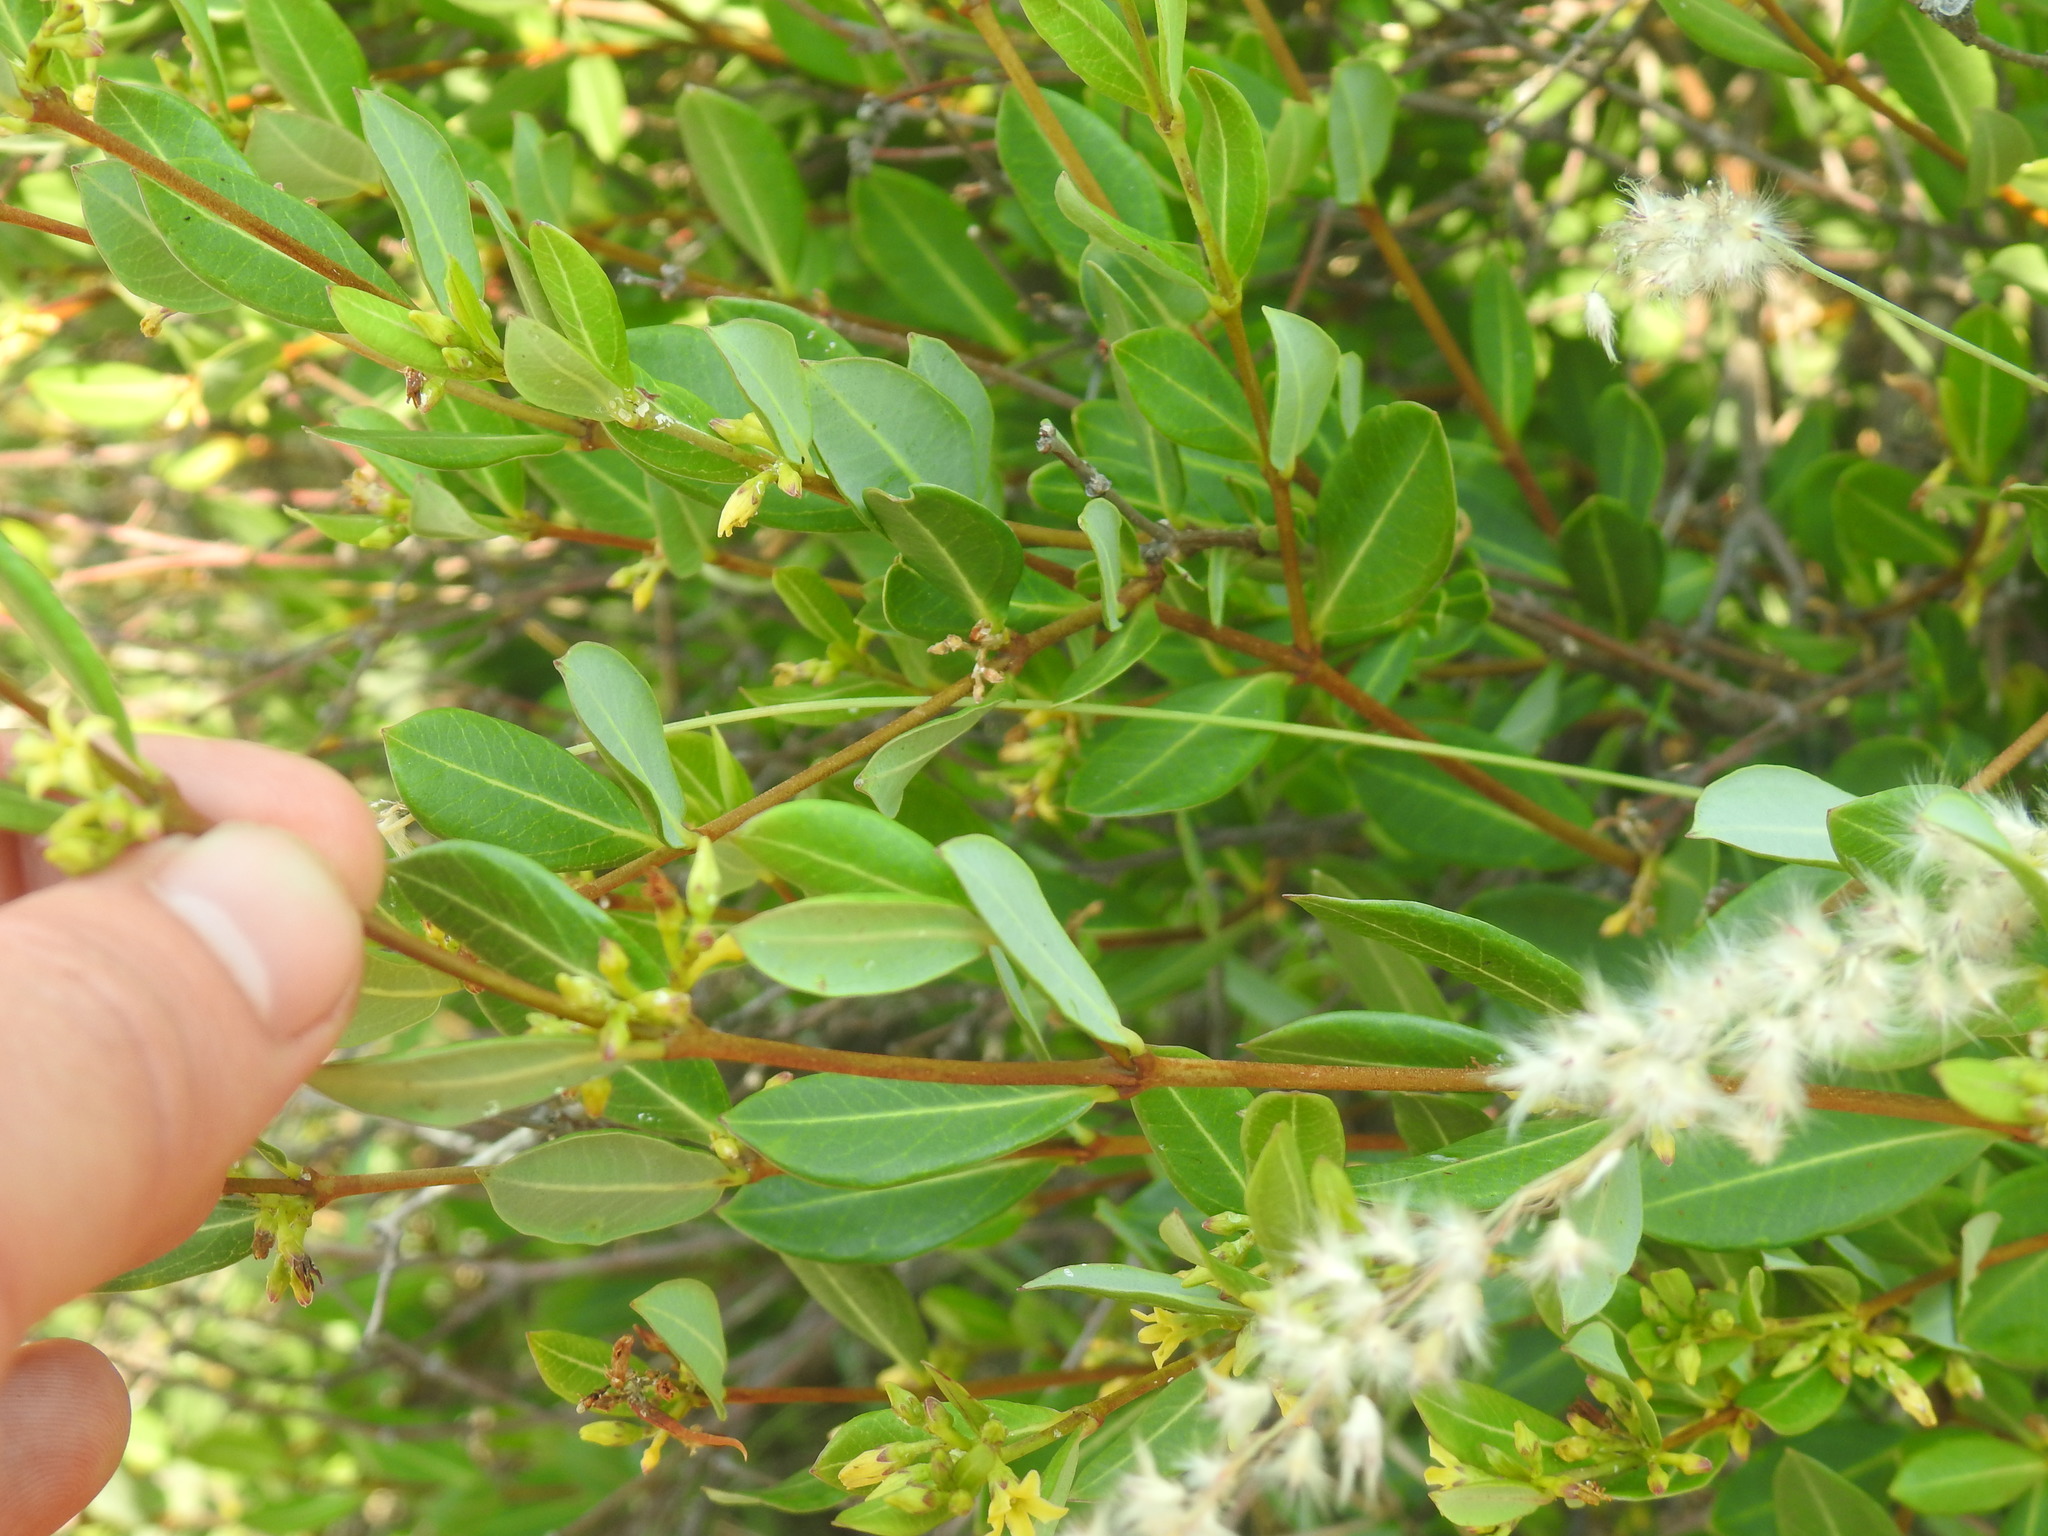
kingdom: Plantae
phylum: Tracheophyta
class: Magnoliopsida
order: Gentianales
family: Apocynaceae
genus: Cryptolepis
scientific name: Cryptolepis oblongifolia
